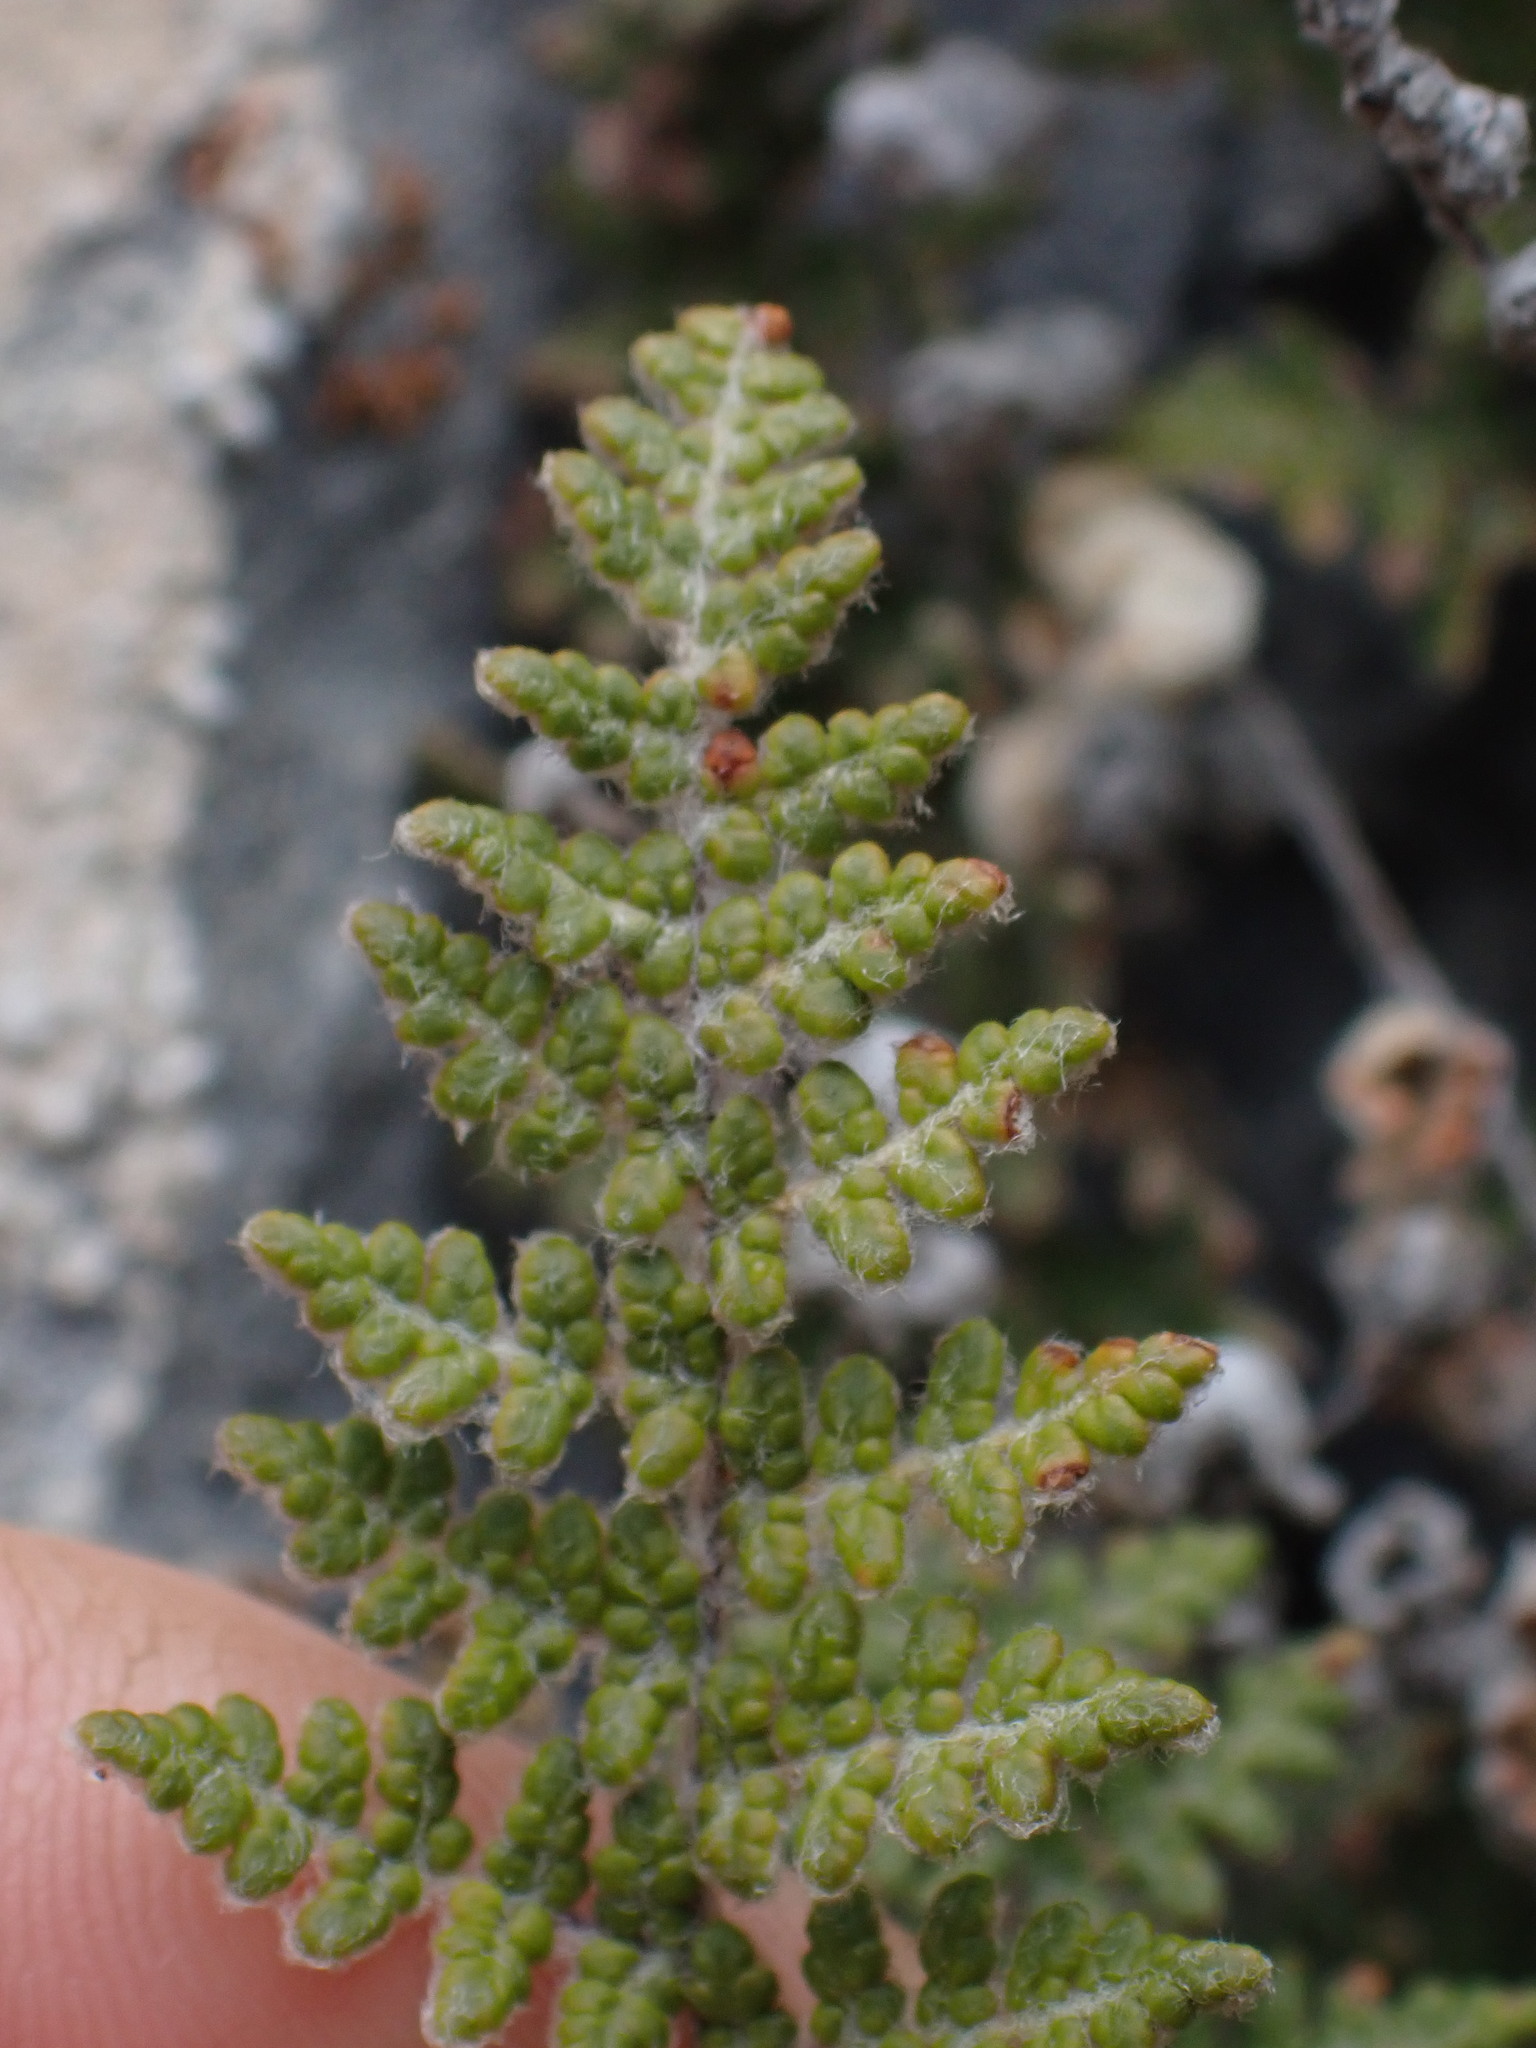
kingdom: Plantae
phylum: Tracheophyta
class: Polypodiopsida
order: Polypodiales
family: Pteridaceae
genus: Myriopteris
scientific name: Myriopteris gracilis
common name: Fee's lip fern
